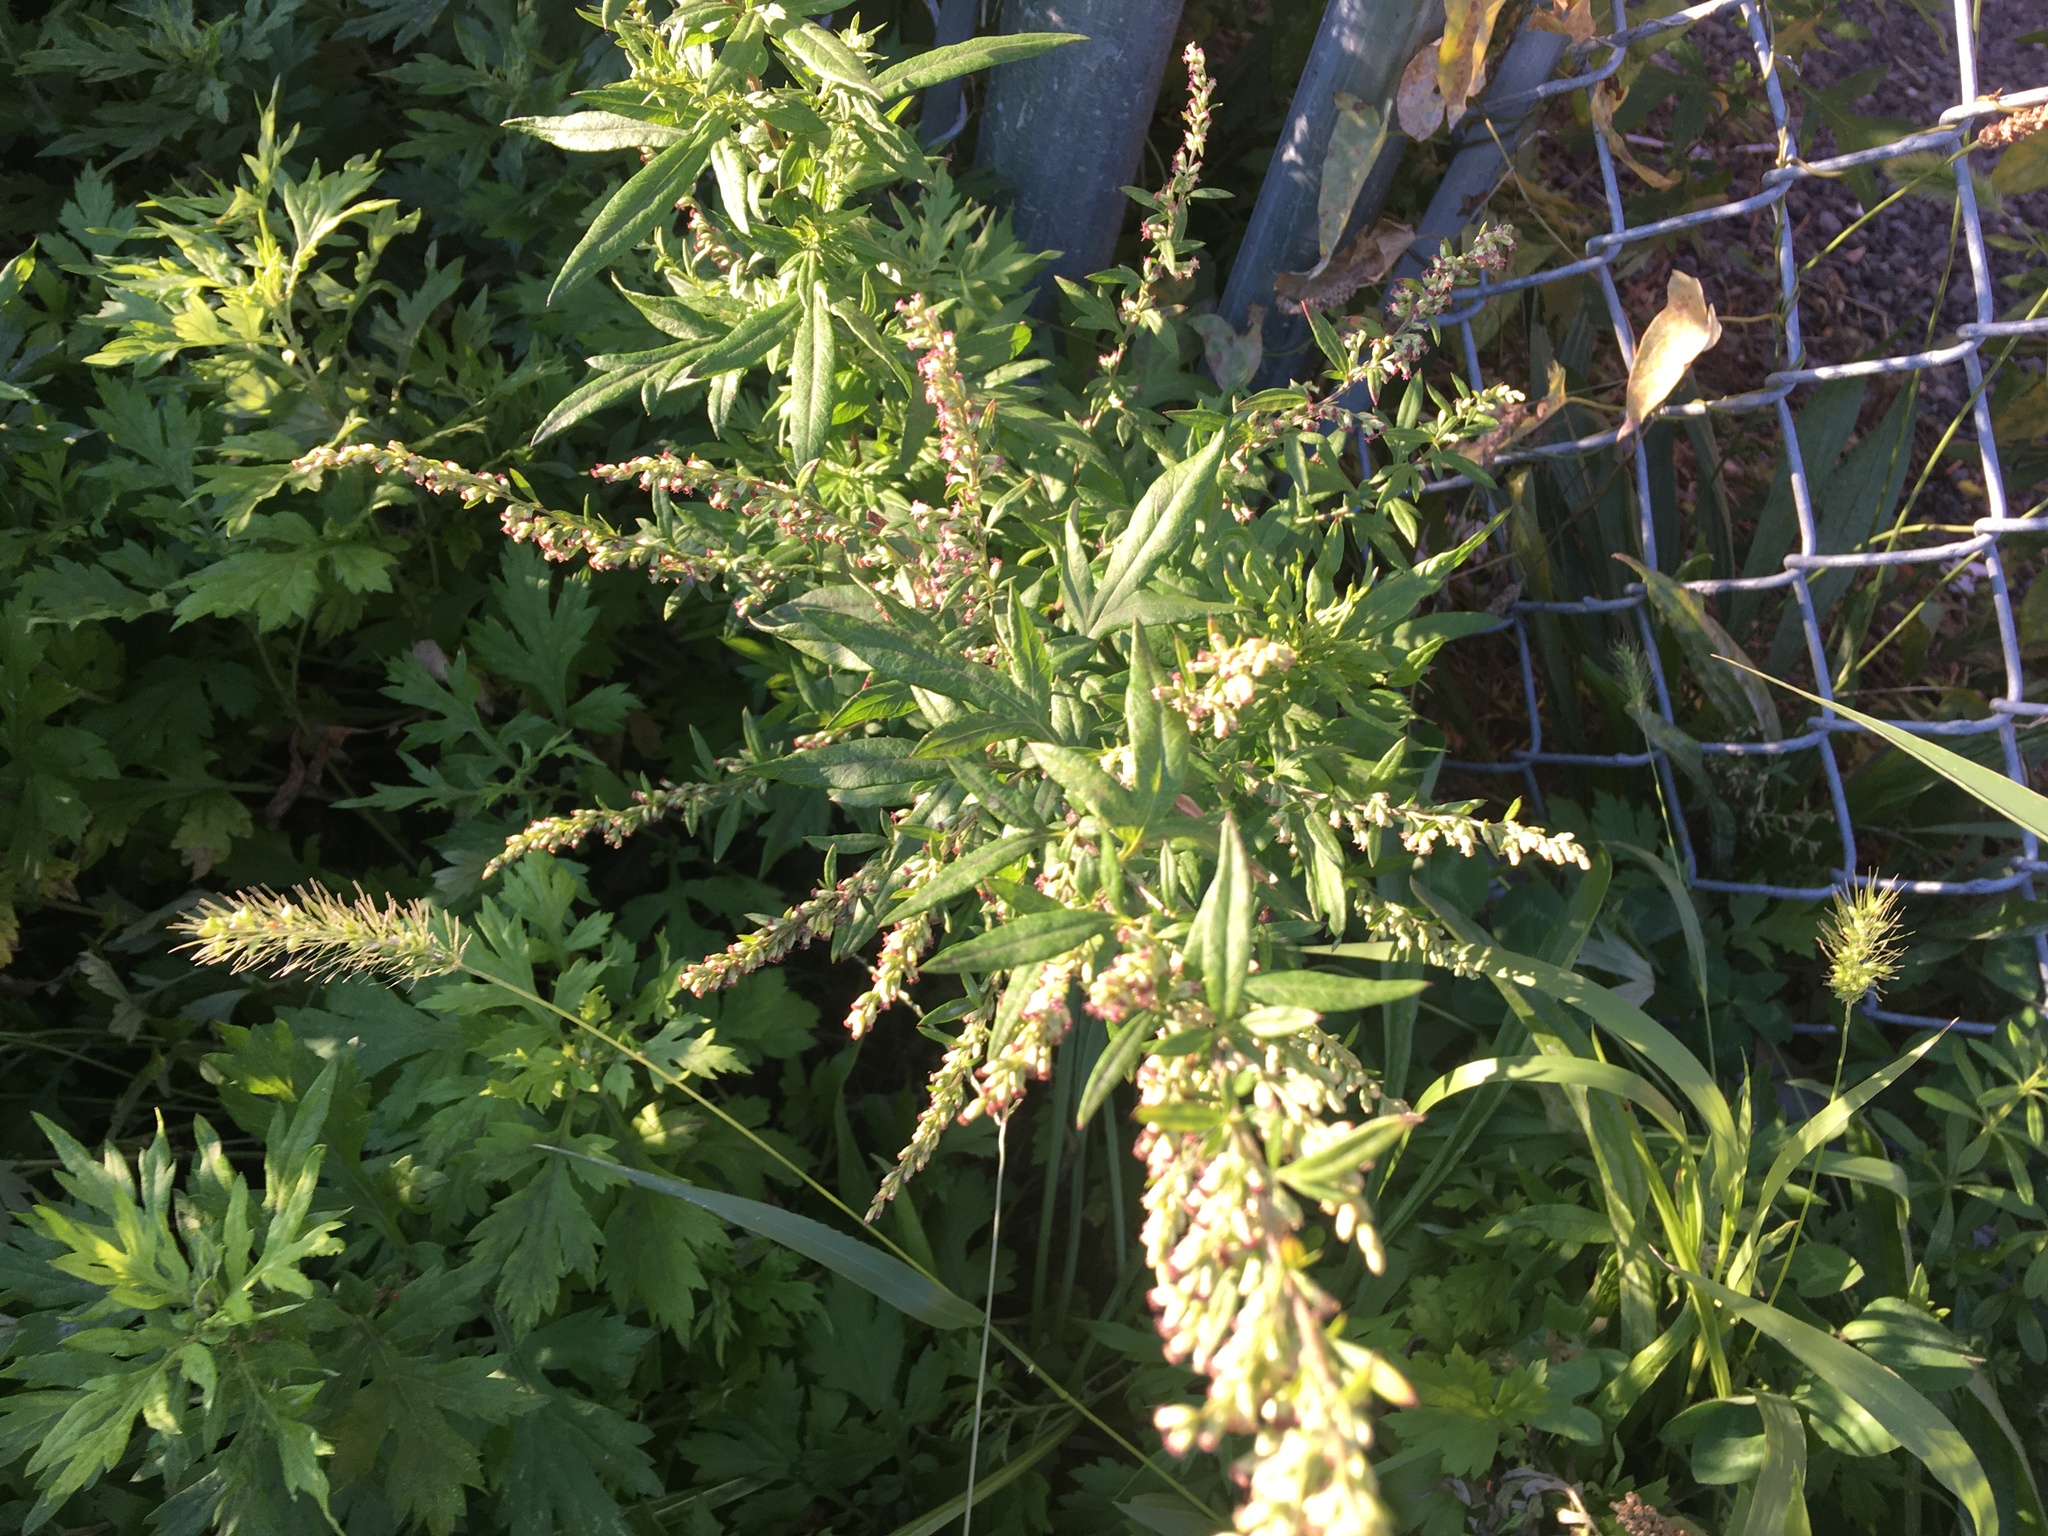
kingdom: Plantae
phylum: Tracheophyta
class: Magnoliopsida
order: Asterales
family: Asteraceae
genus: Artemisia
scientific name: Artemisia vulgaris
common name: Mugwort
